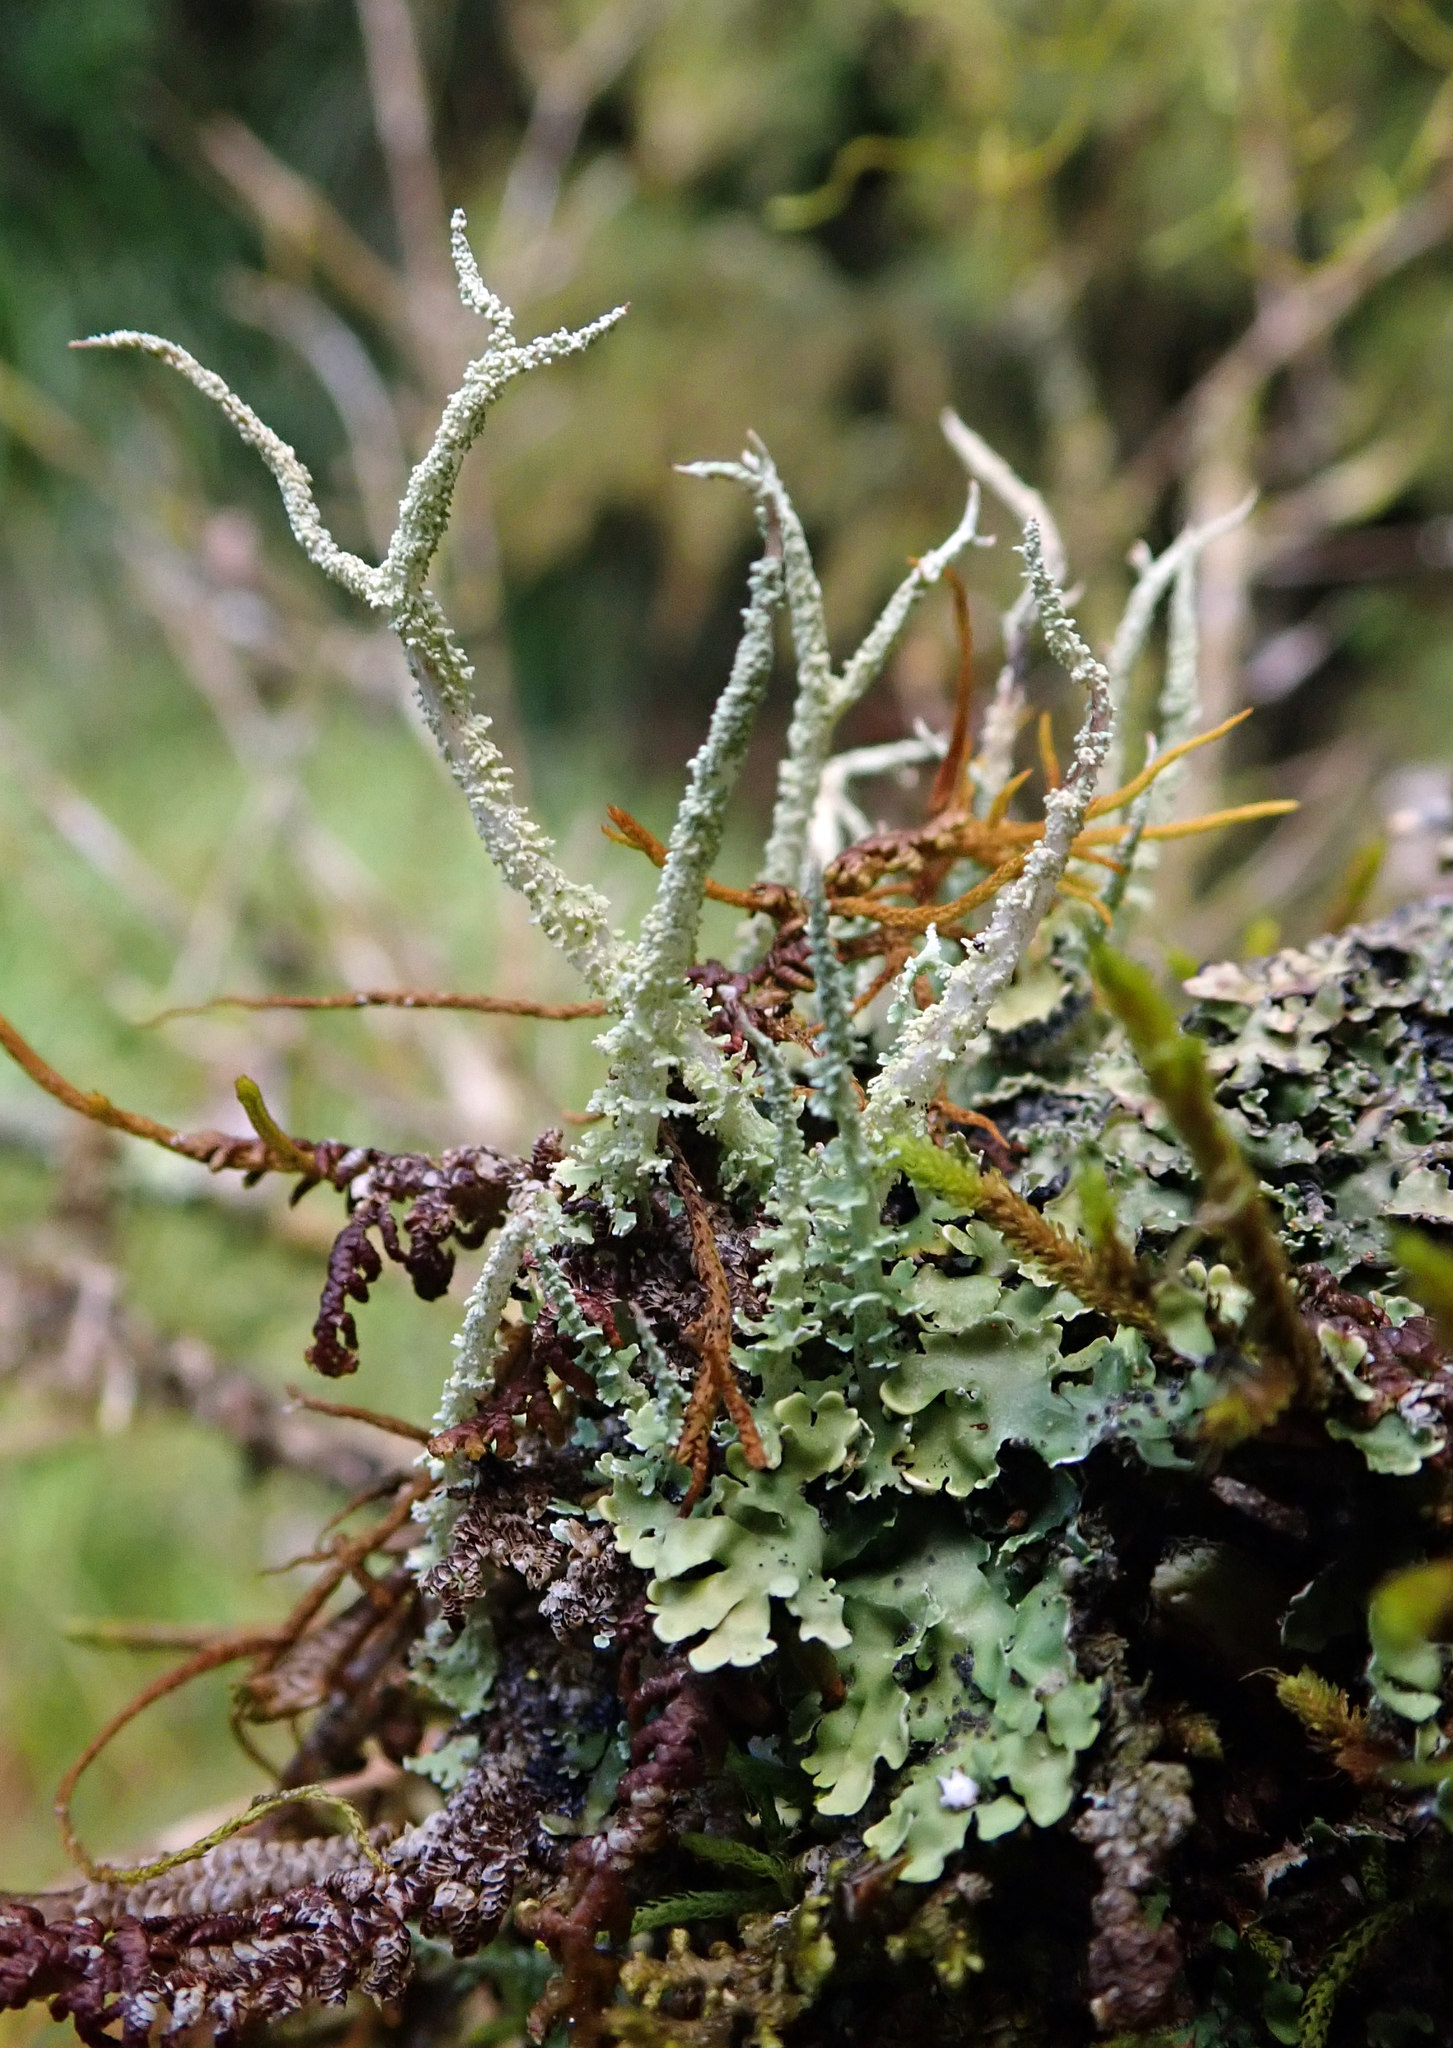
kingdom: Fungi
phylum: Ascomycota
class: Lecanoromycetes
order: Lecanorales
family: Cladoniaceae
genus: Cladonia
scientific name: Cladonia darwinii
